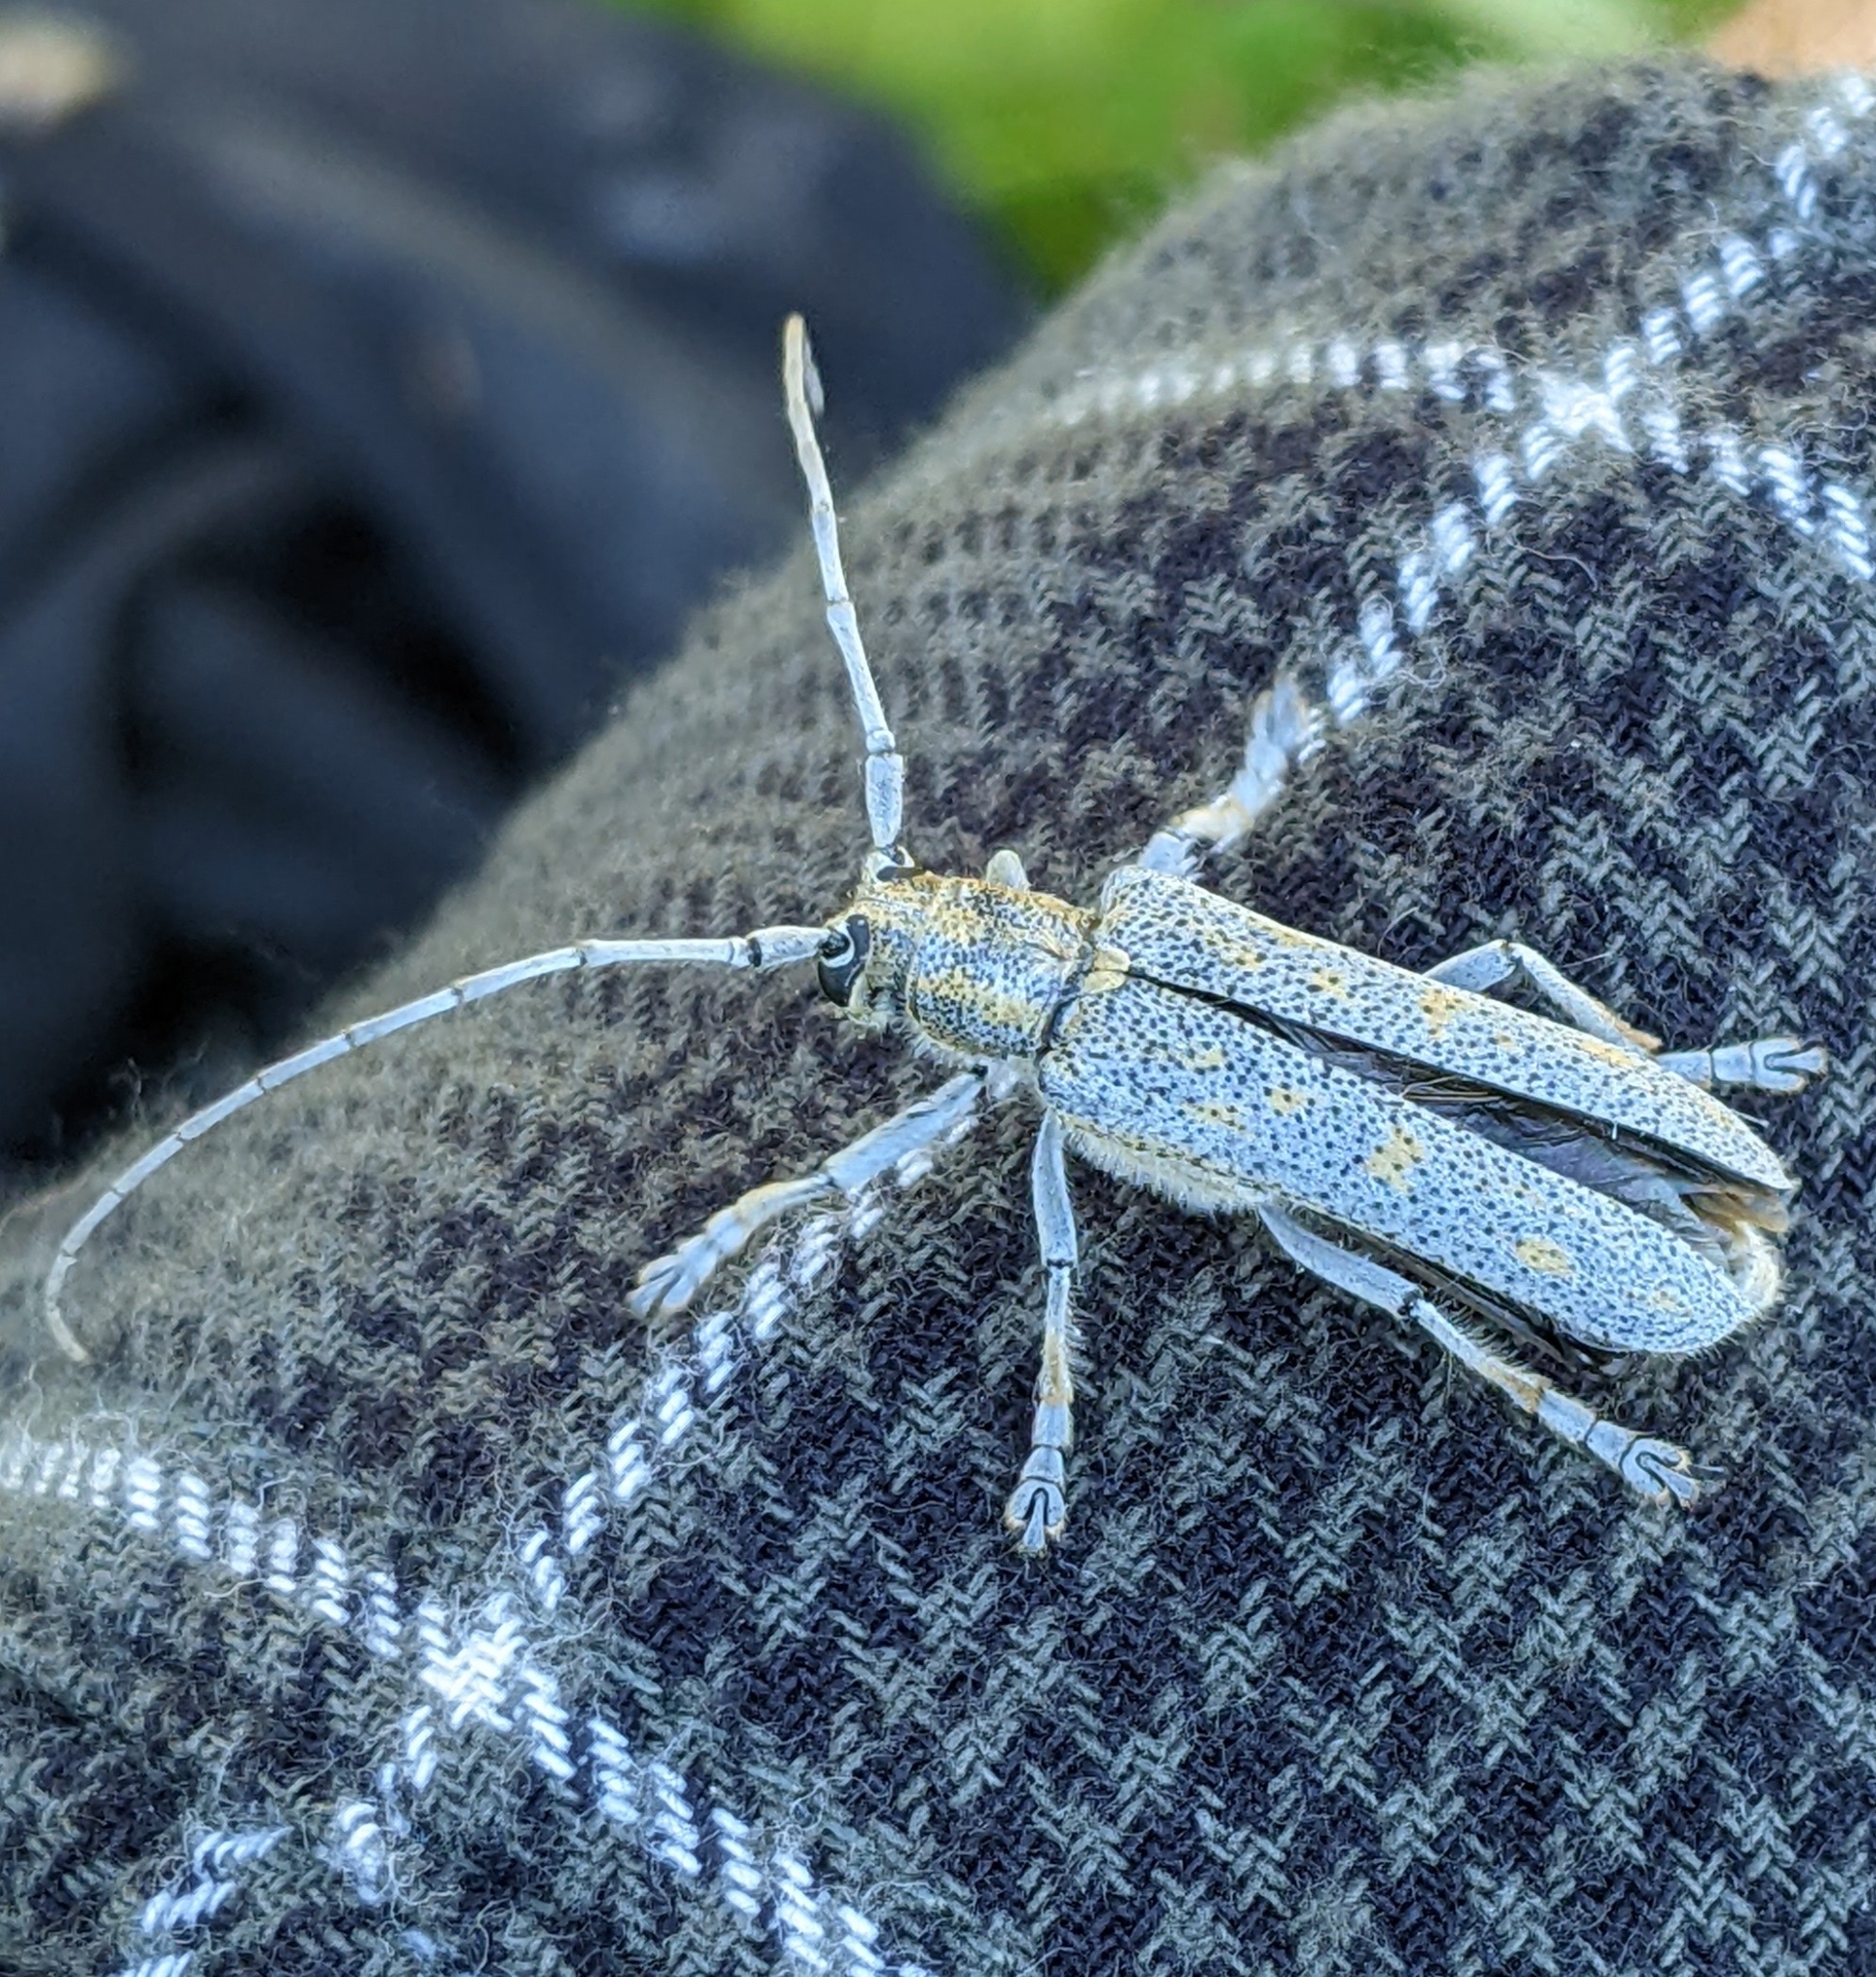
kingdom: Animalia
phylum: Arthropoda
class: Insecta
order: Coleoptera
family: Cerambycidae
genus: Saperda
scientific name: Saperda calcarata
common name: Poplar borer
